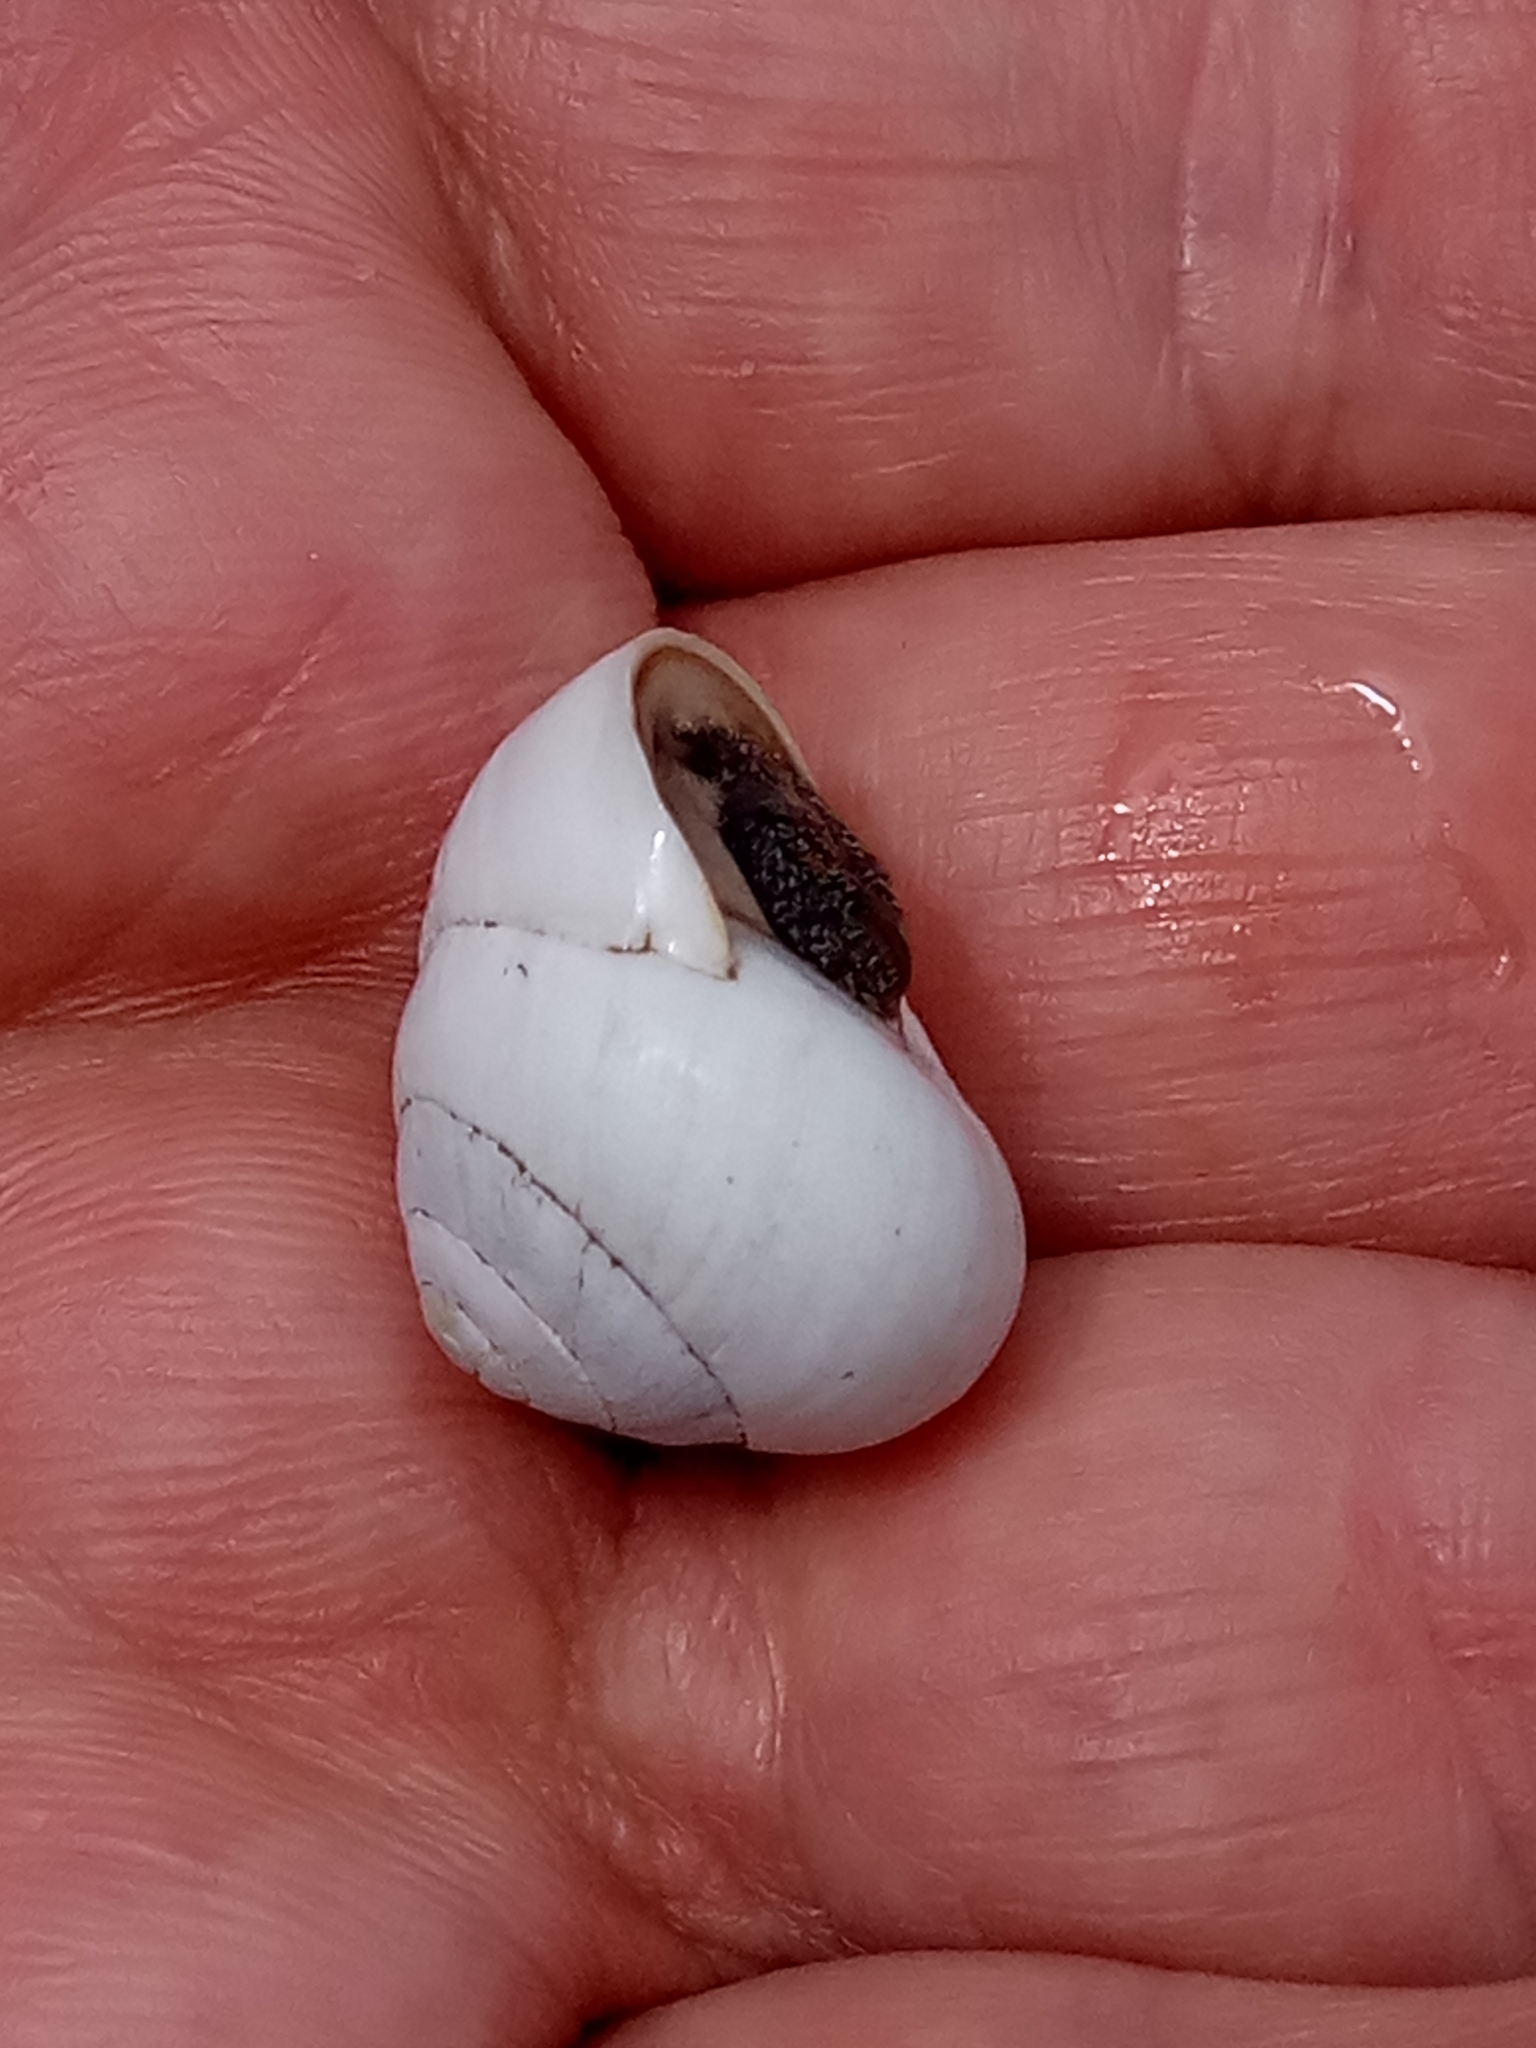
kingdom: Animalia
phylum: Mollusca
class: Gastropoda
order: Stylommatophora
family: Sphincterochilidae
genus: Sphincterochila
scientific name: Sphincterochila candidissima
